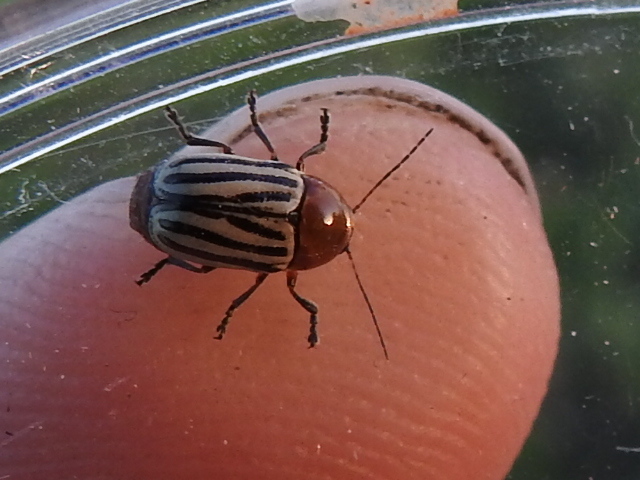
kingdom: Animalia
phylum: Arthropoda
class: Insecta
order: Coleoptera
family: Chrysomelidae
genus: Cryptocephalus
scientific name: Cryptocephalus confluentus
